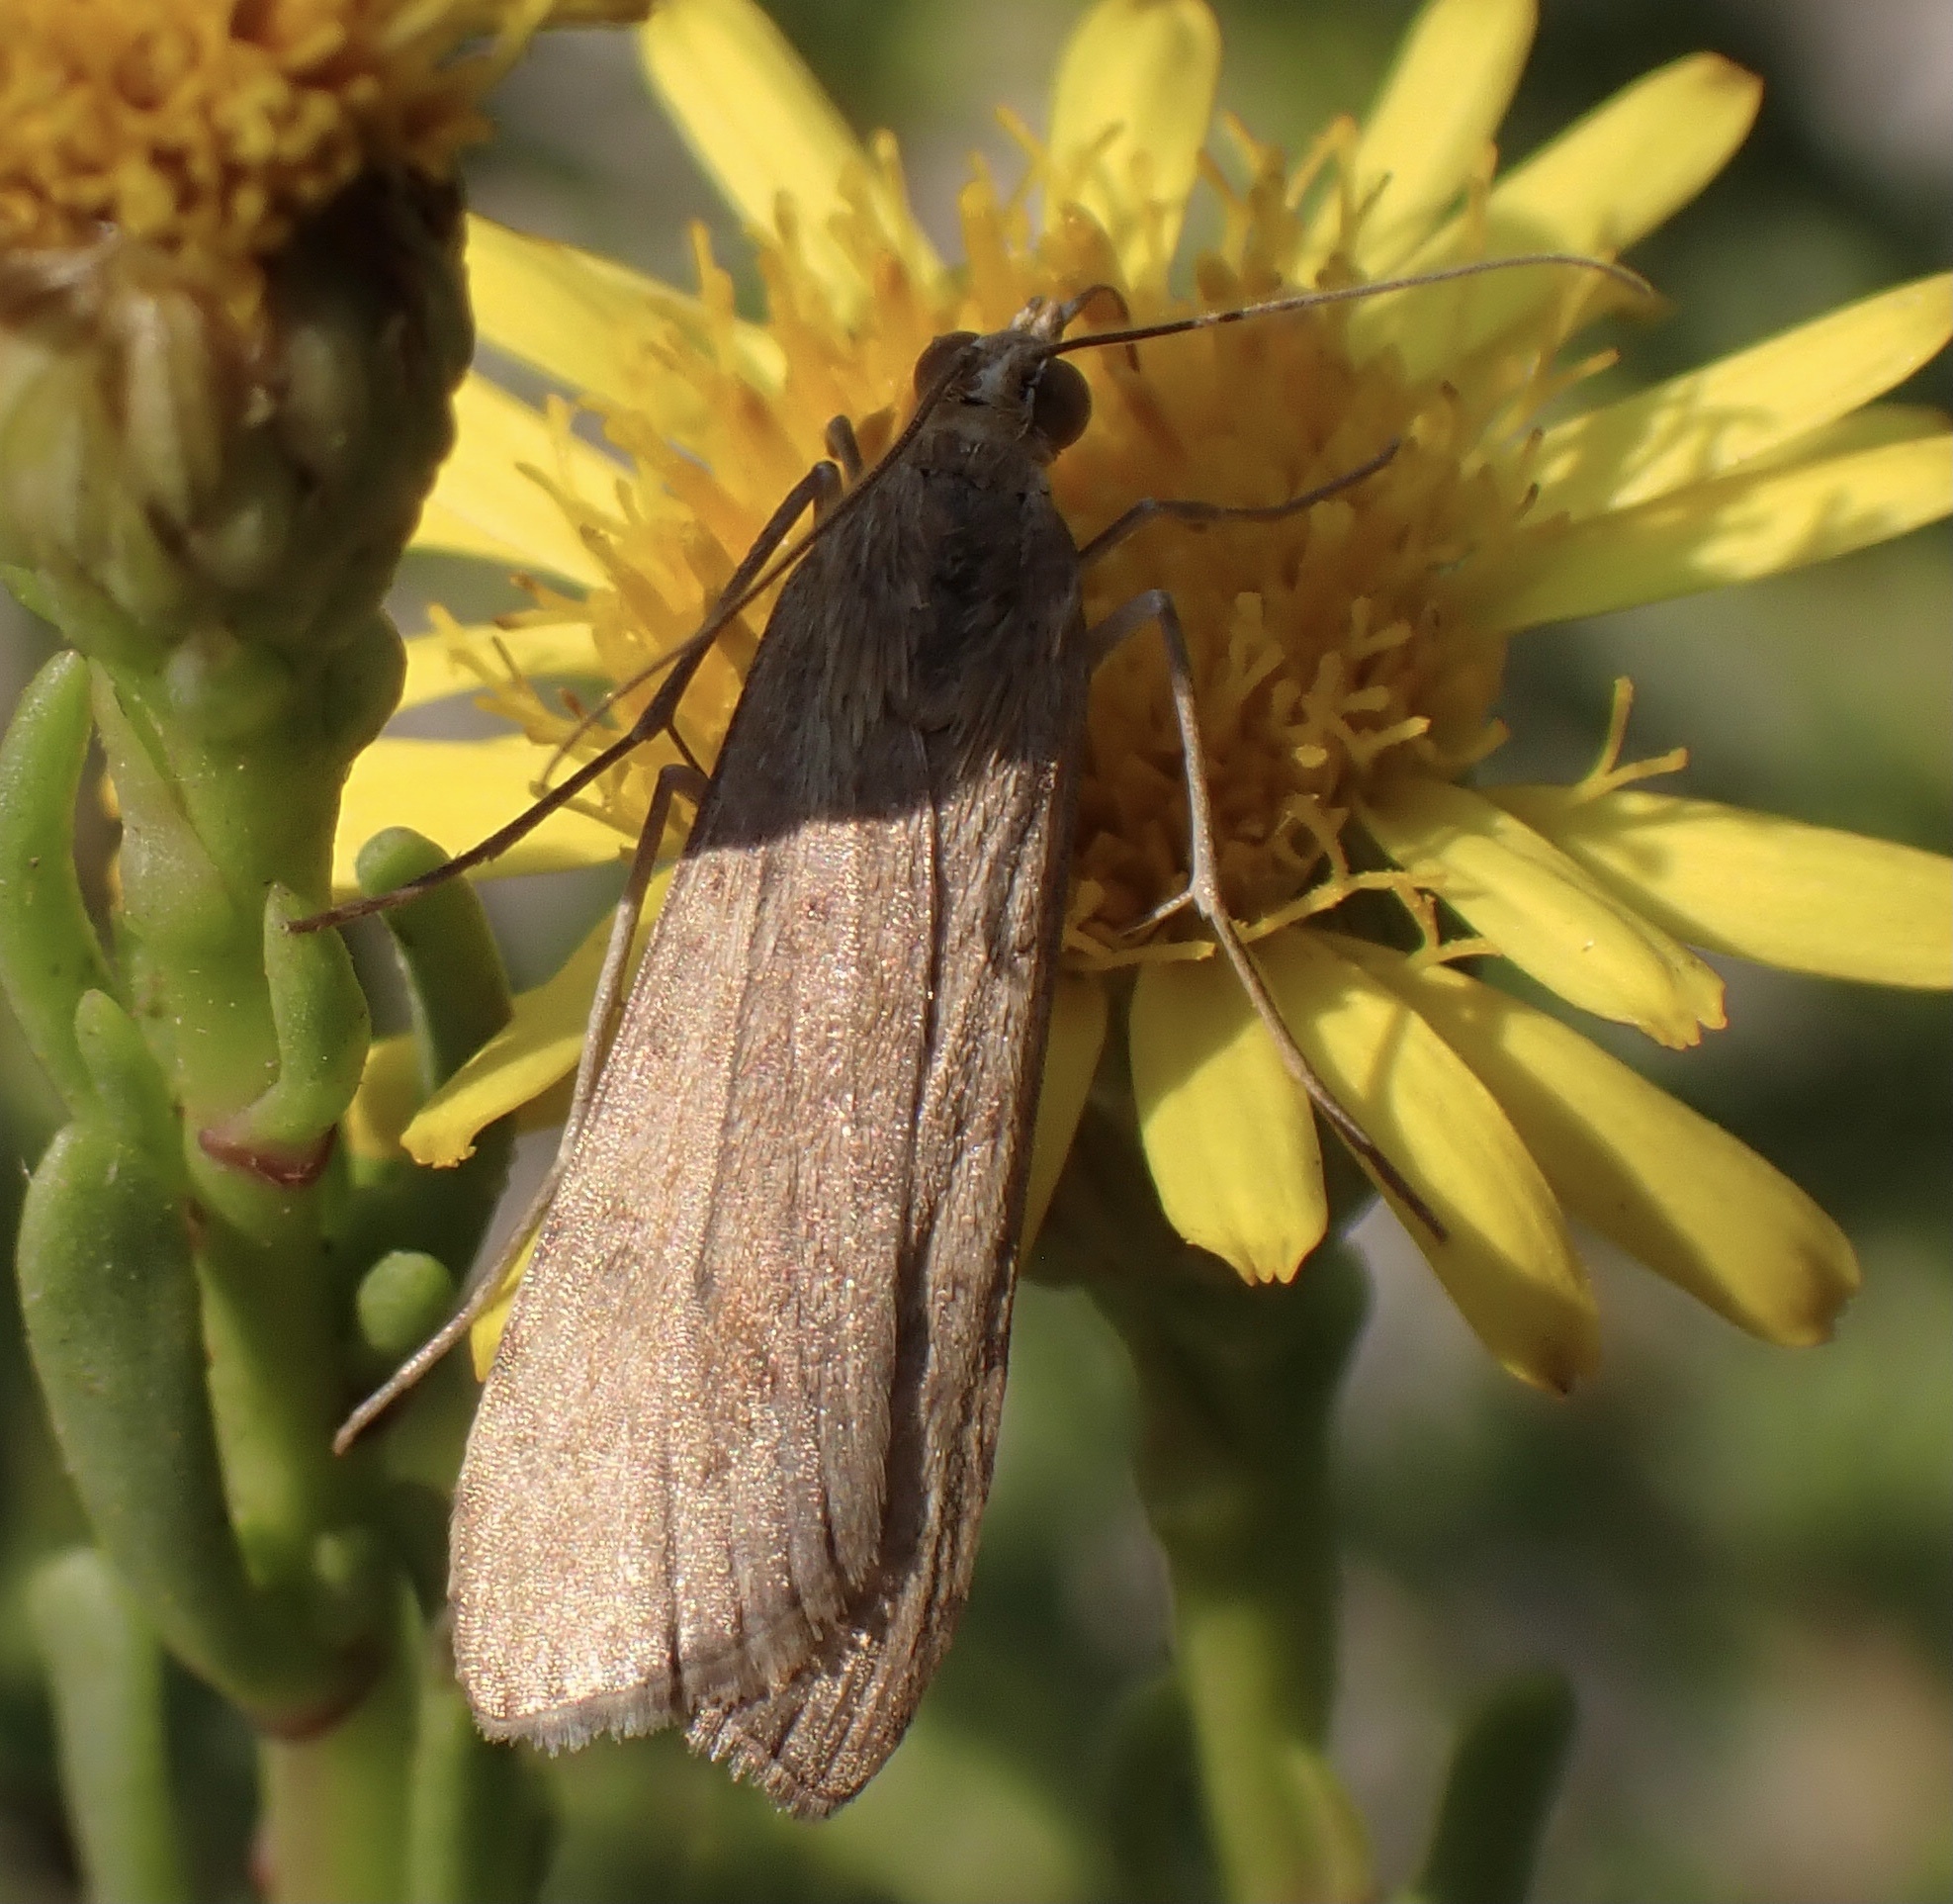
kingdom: Animalia
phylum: Arthropoda
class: Insecta
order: Lepidoptera
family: Crambidae
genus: Nomophila
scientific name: Nomophila noctuella
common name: Rush veneer
